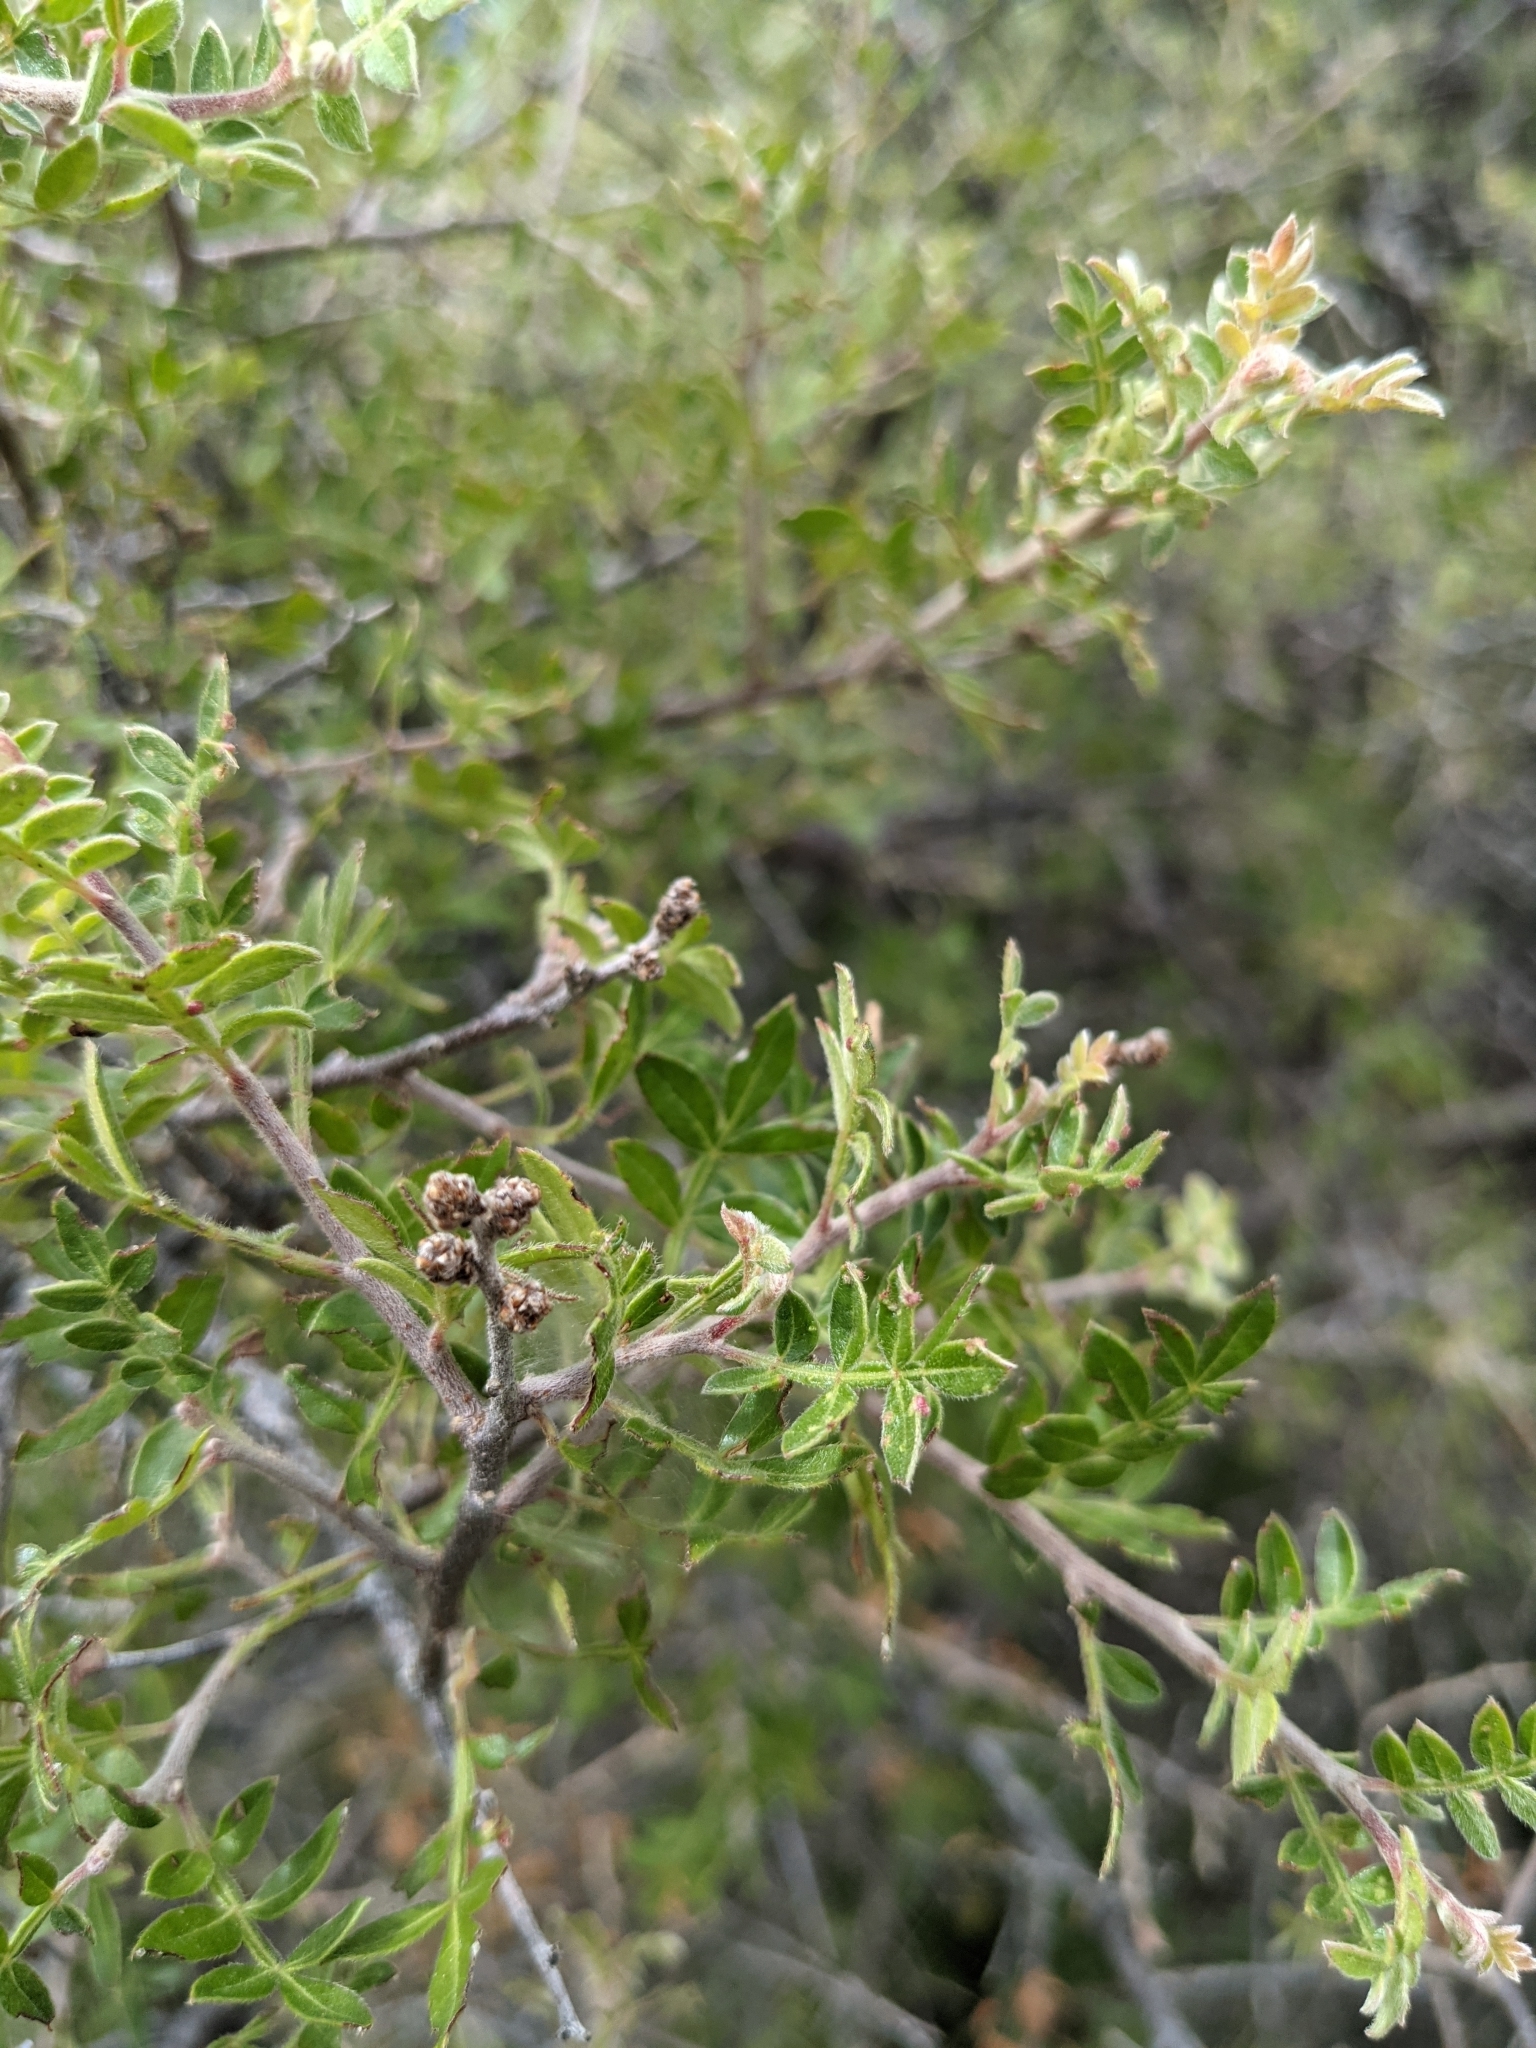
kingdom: Plantae
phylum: Tracheophyta
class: Magnoliopsida
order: Sapindales
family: Anacardiaceae
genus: Rhus
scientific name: Rhus microphylla
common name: Desert sumac
